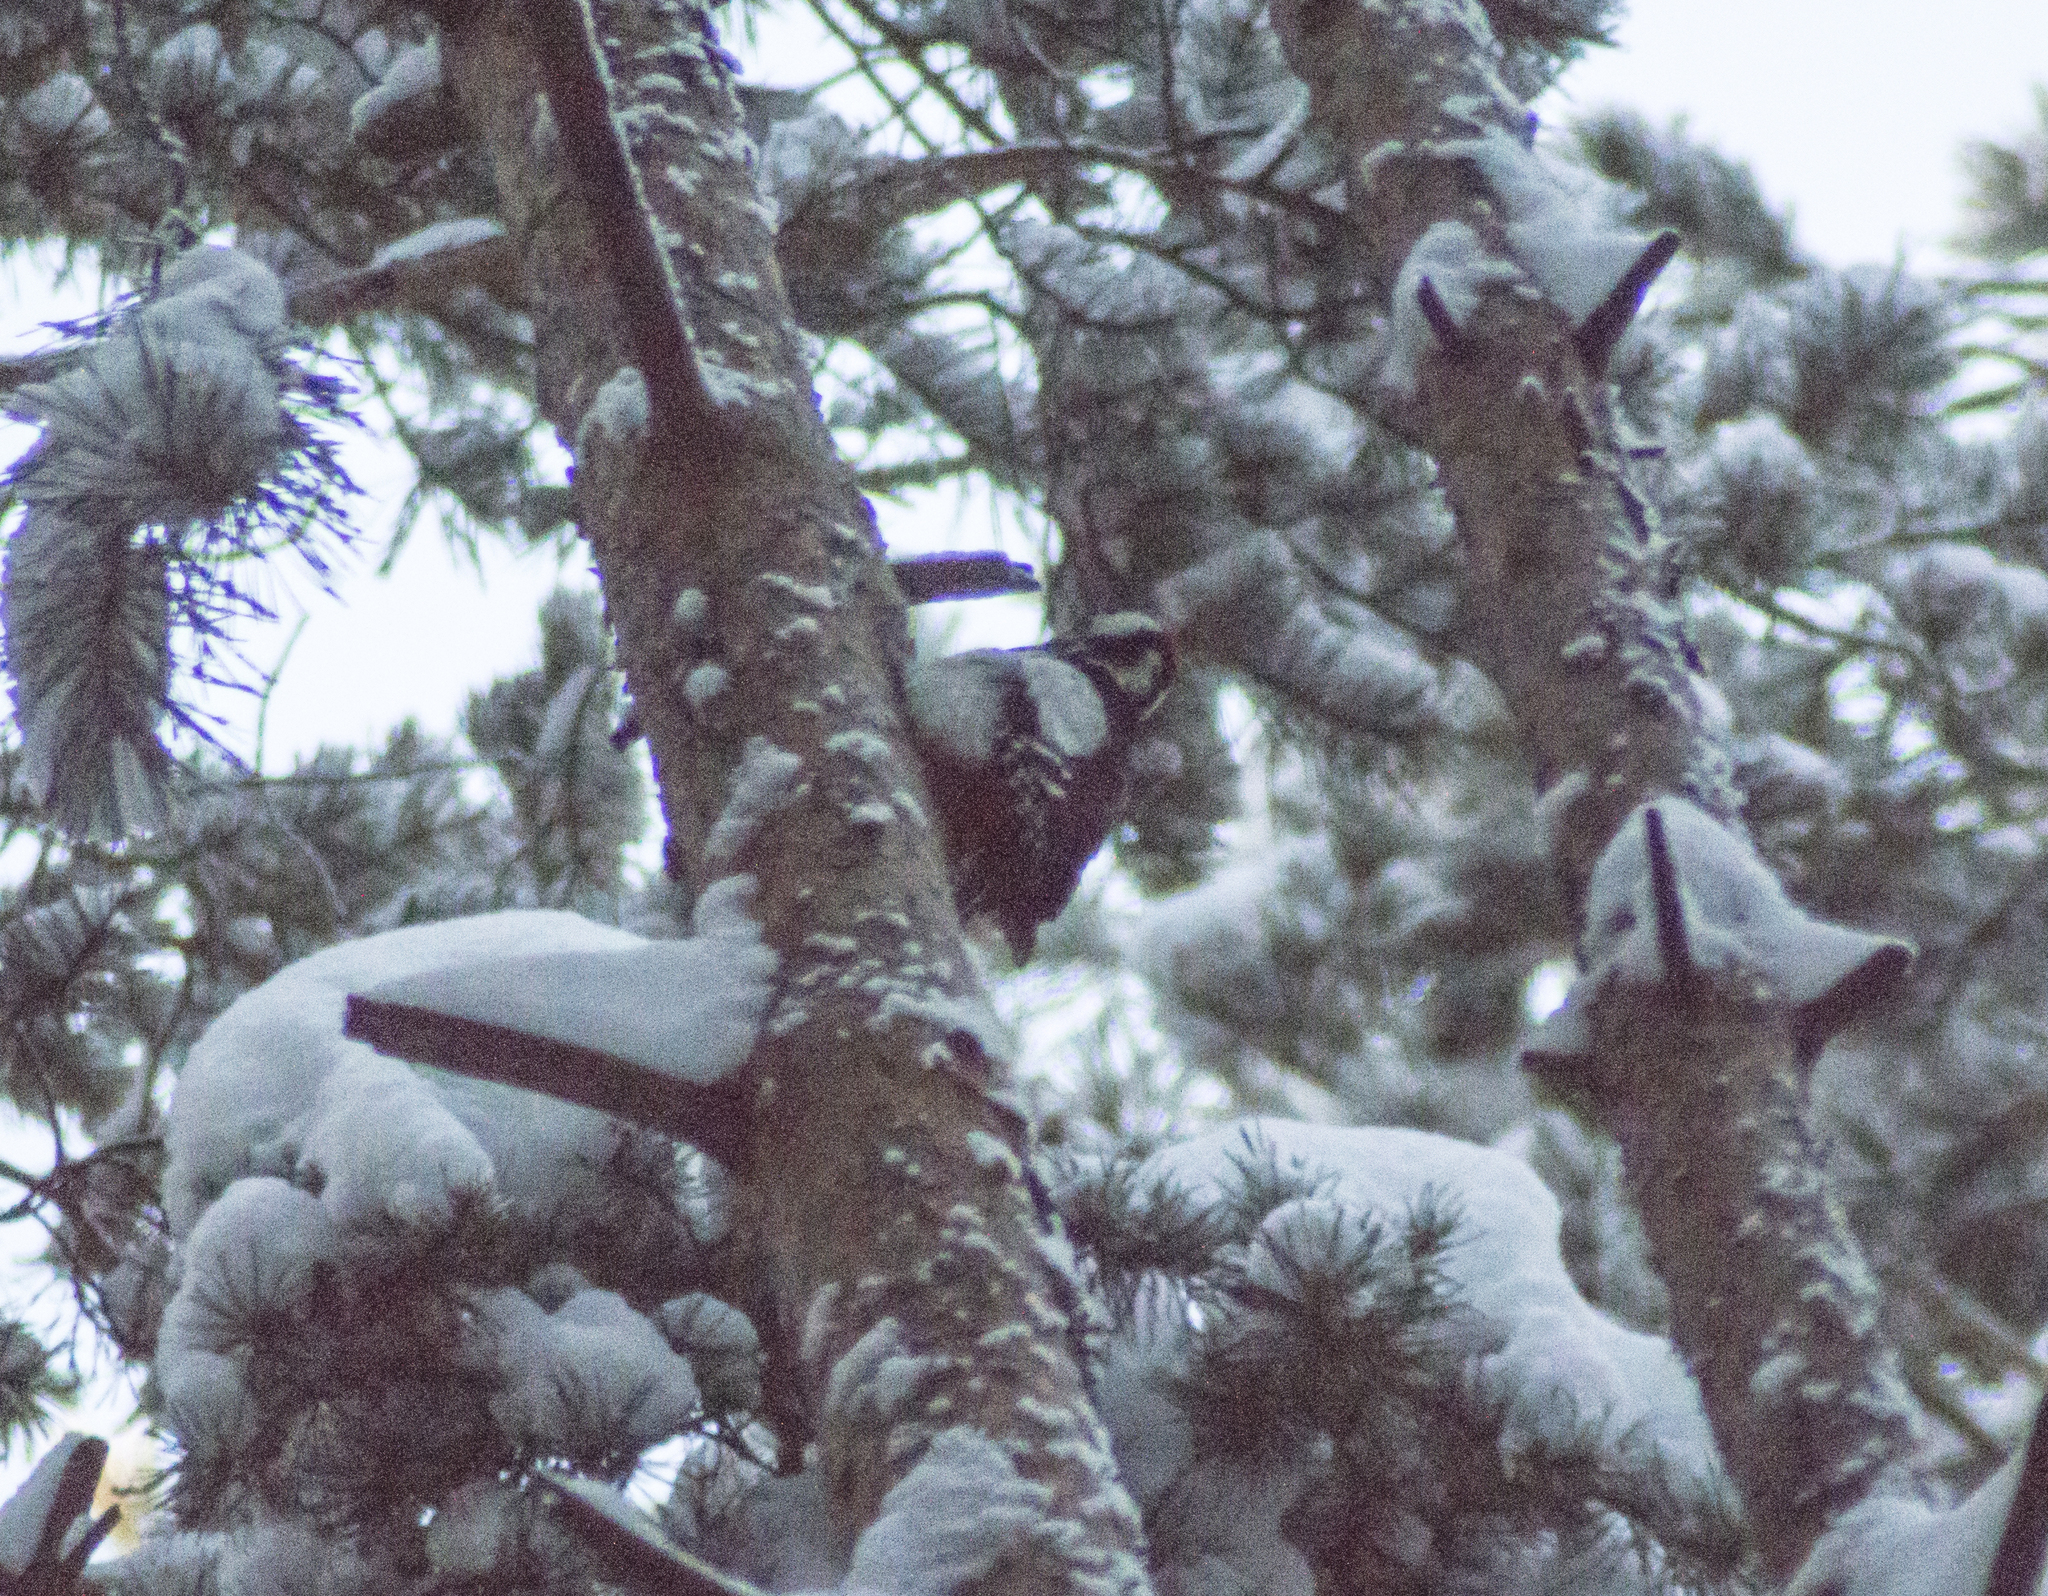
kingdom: Animalia
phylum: Chordata
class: Aves
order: Piciformes
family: Picidae
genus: Dendrocopos
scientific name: Dendrocopos major
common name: Great spotted woodpecker
